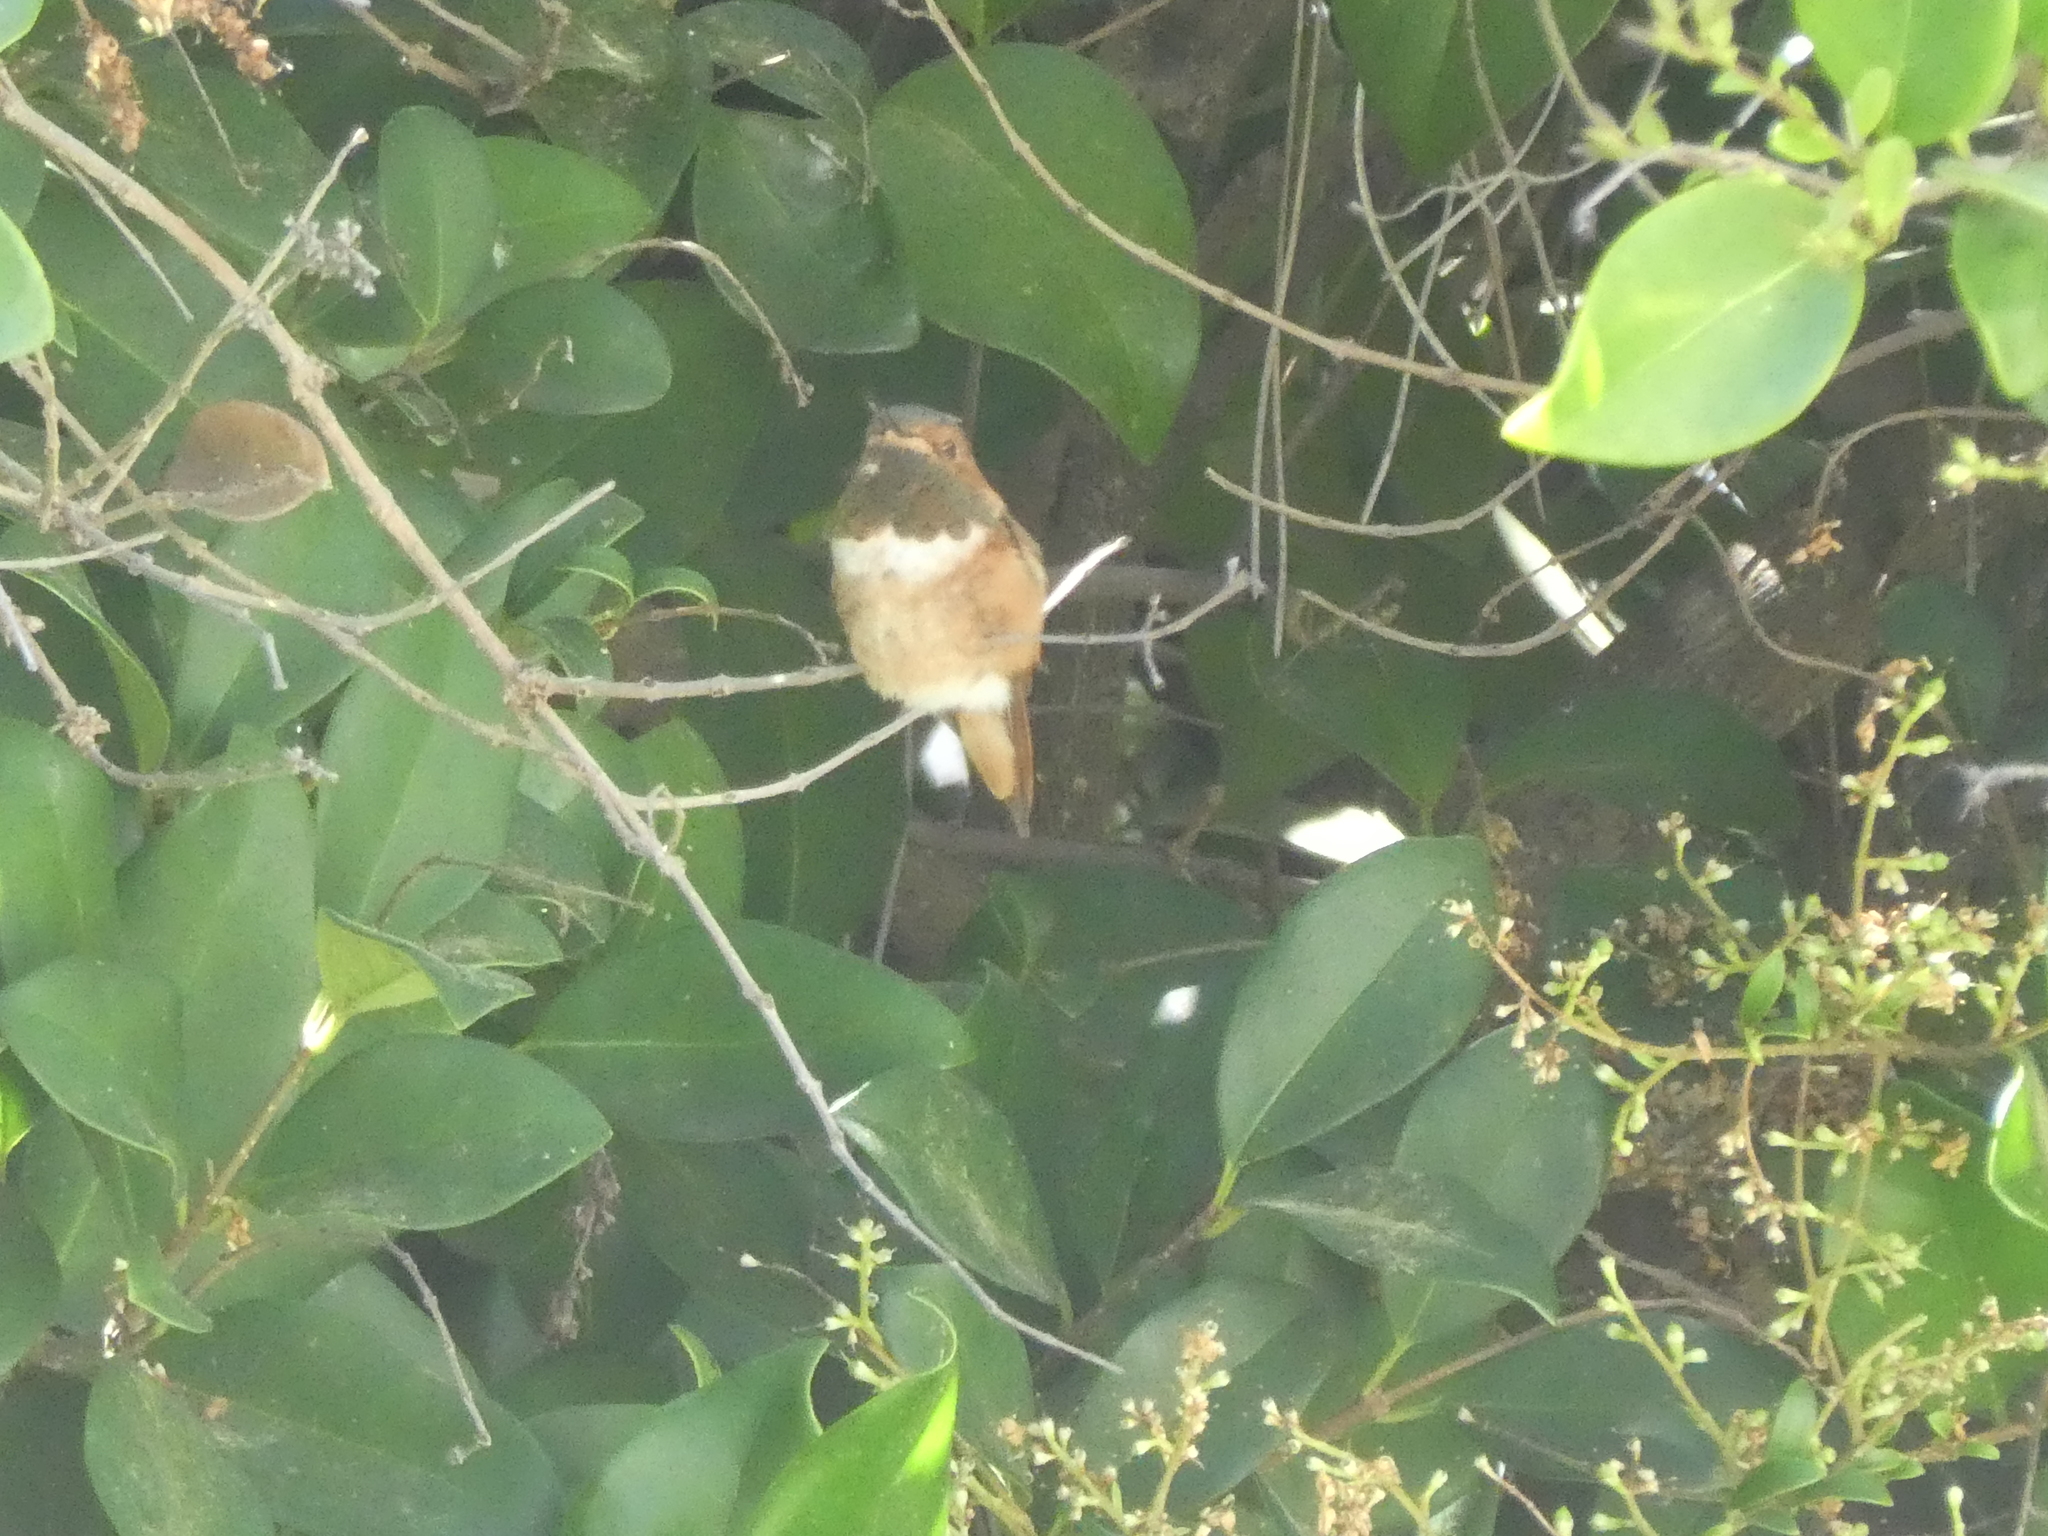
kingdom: Animalia
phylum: Chordata
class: Aves
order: Apodiformes
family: Trochilidae
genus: Selasphorus
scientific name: Selasphorus sasin
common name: Allen's hummingbird
